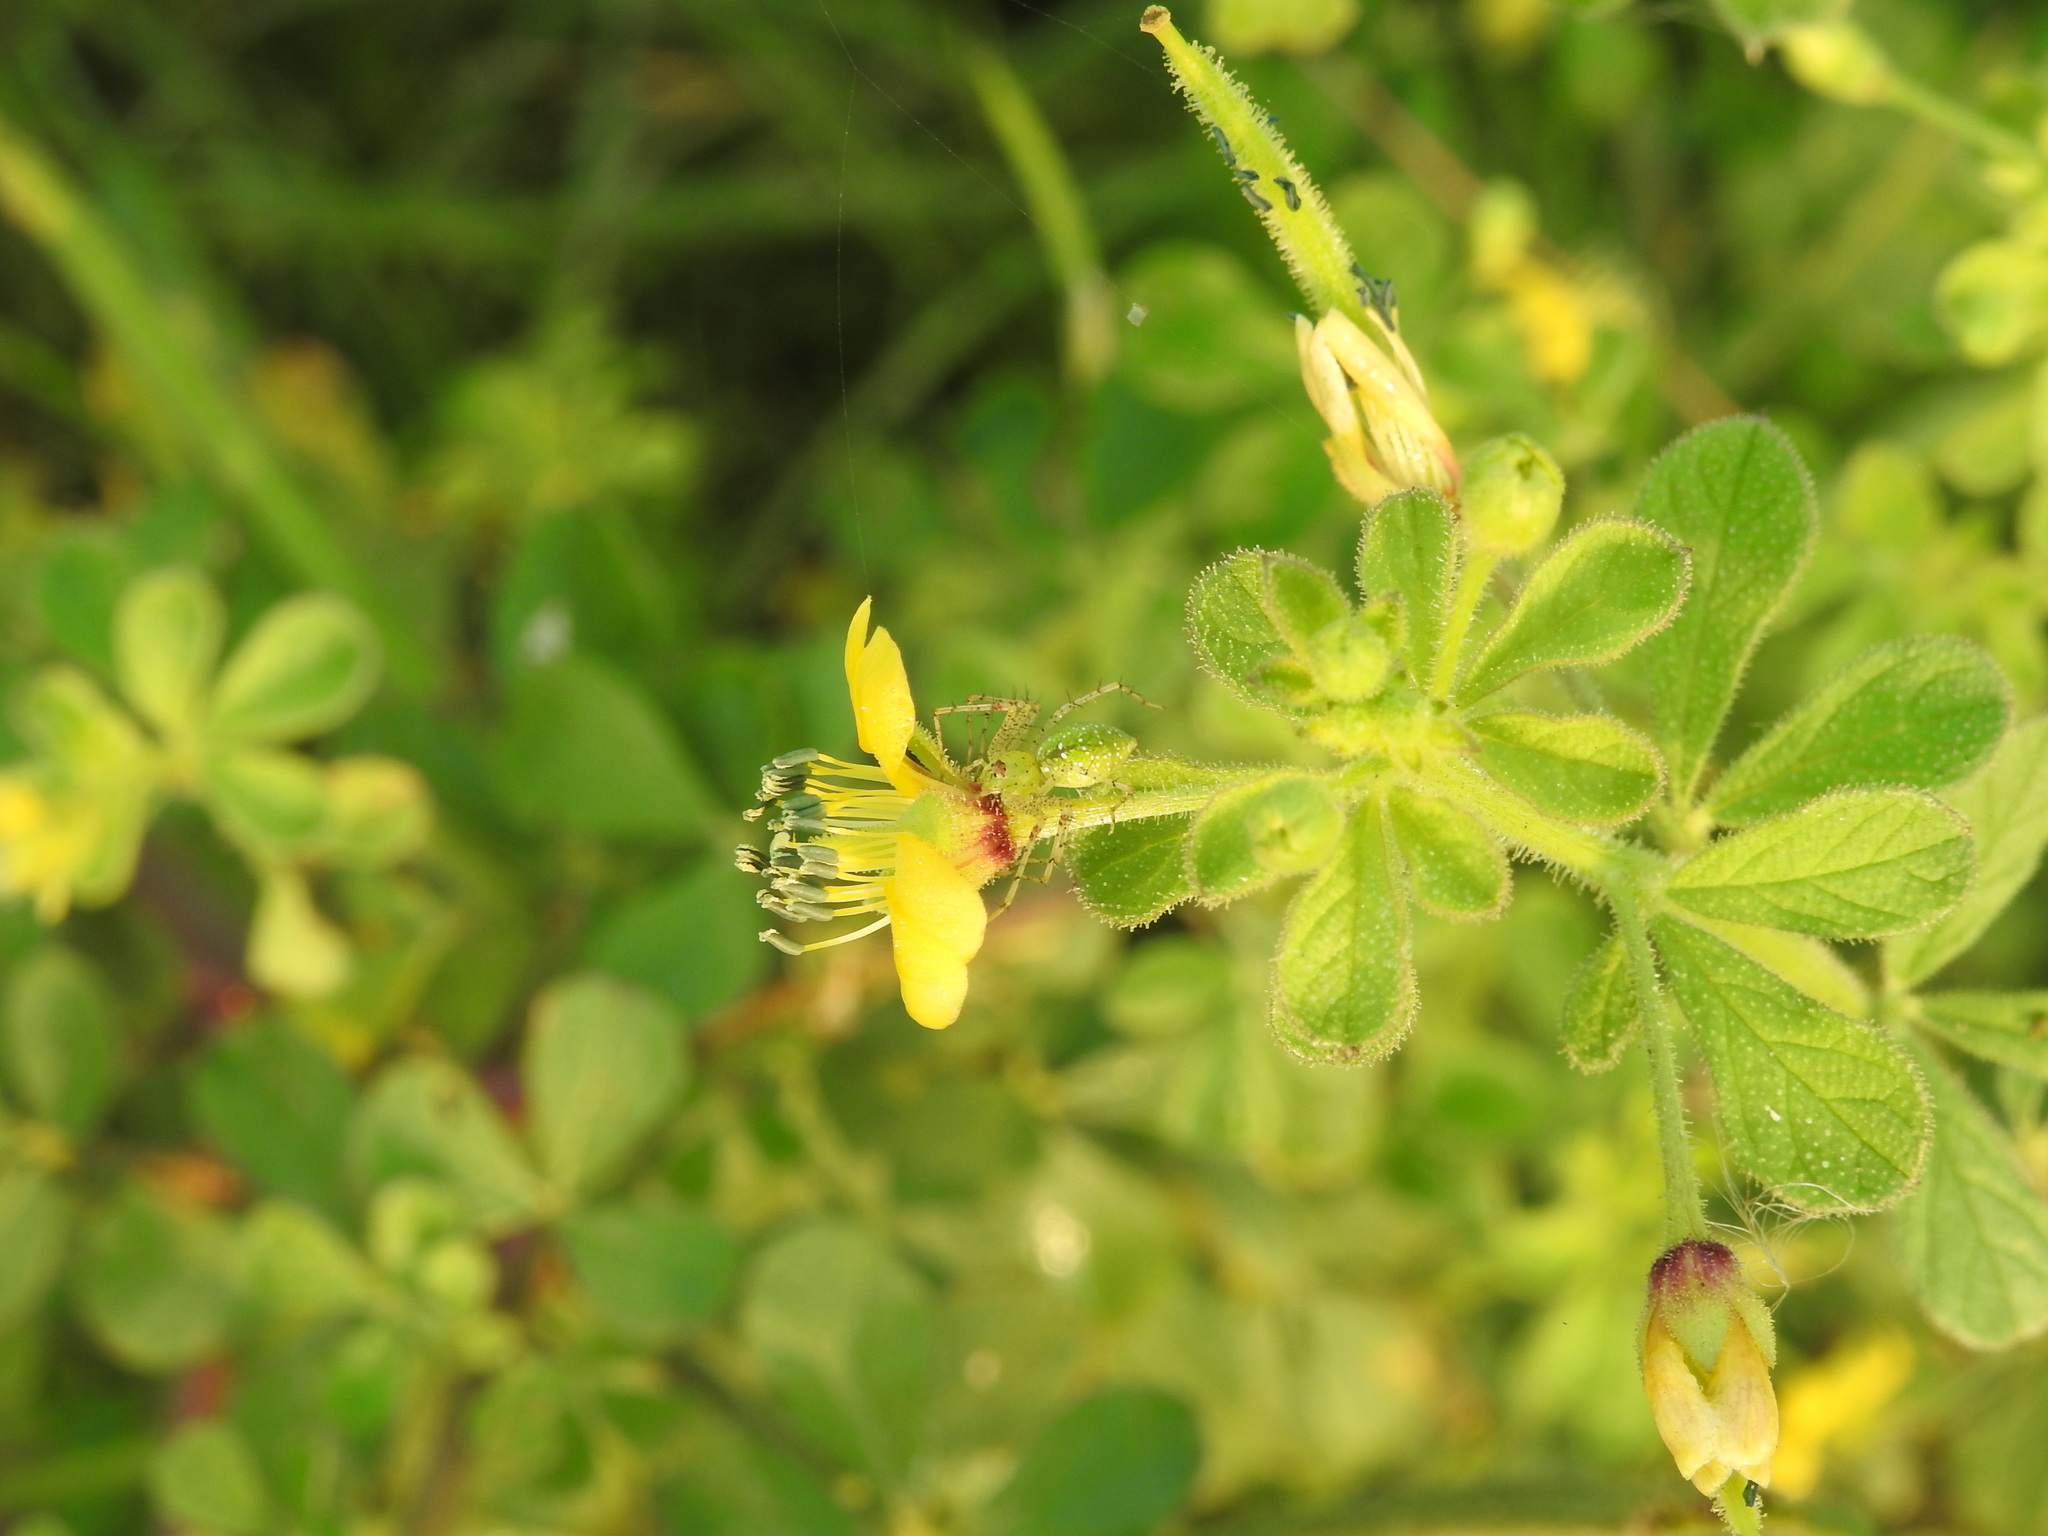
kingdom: Plantae
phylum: Tracheophyta
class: Magnoliopsida
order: Brassicales
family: Cleomaceae
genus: Arivela
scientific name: Arivela viscosa
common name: Asian spiderflower
